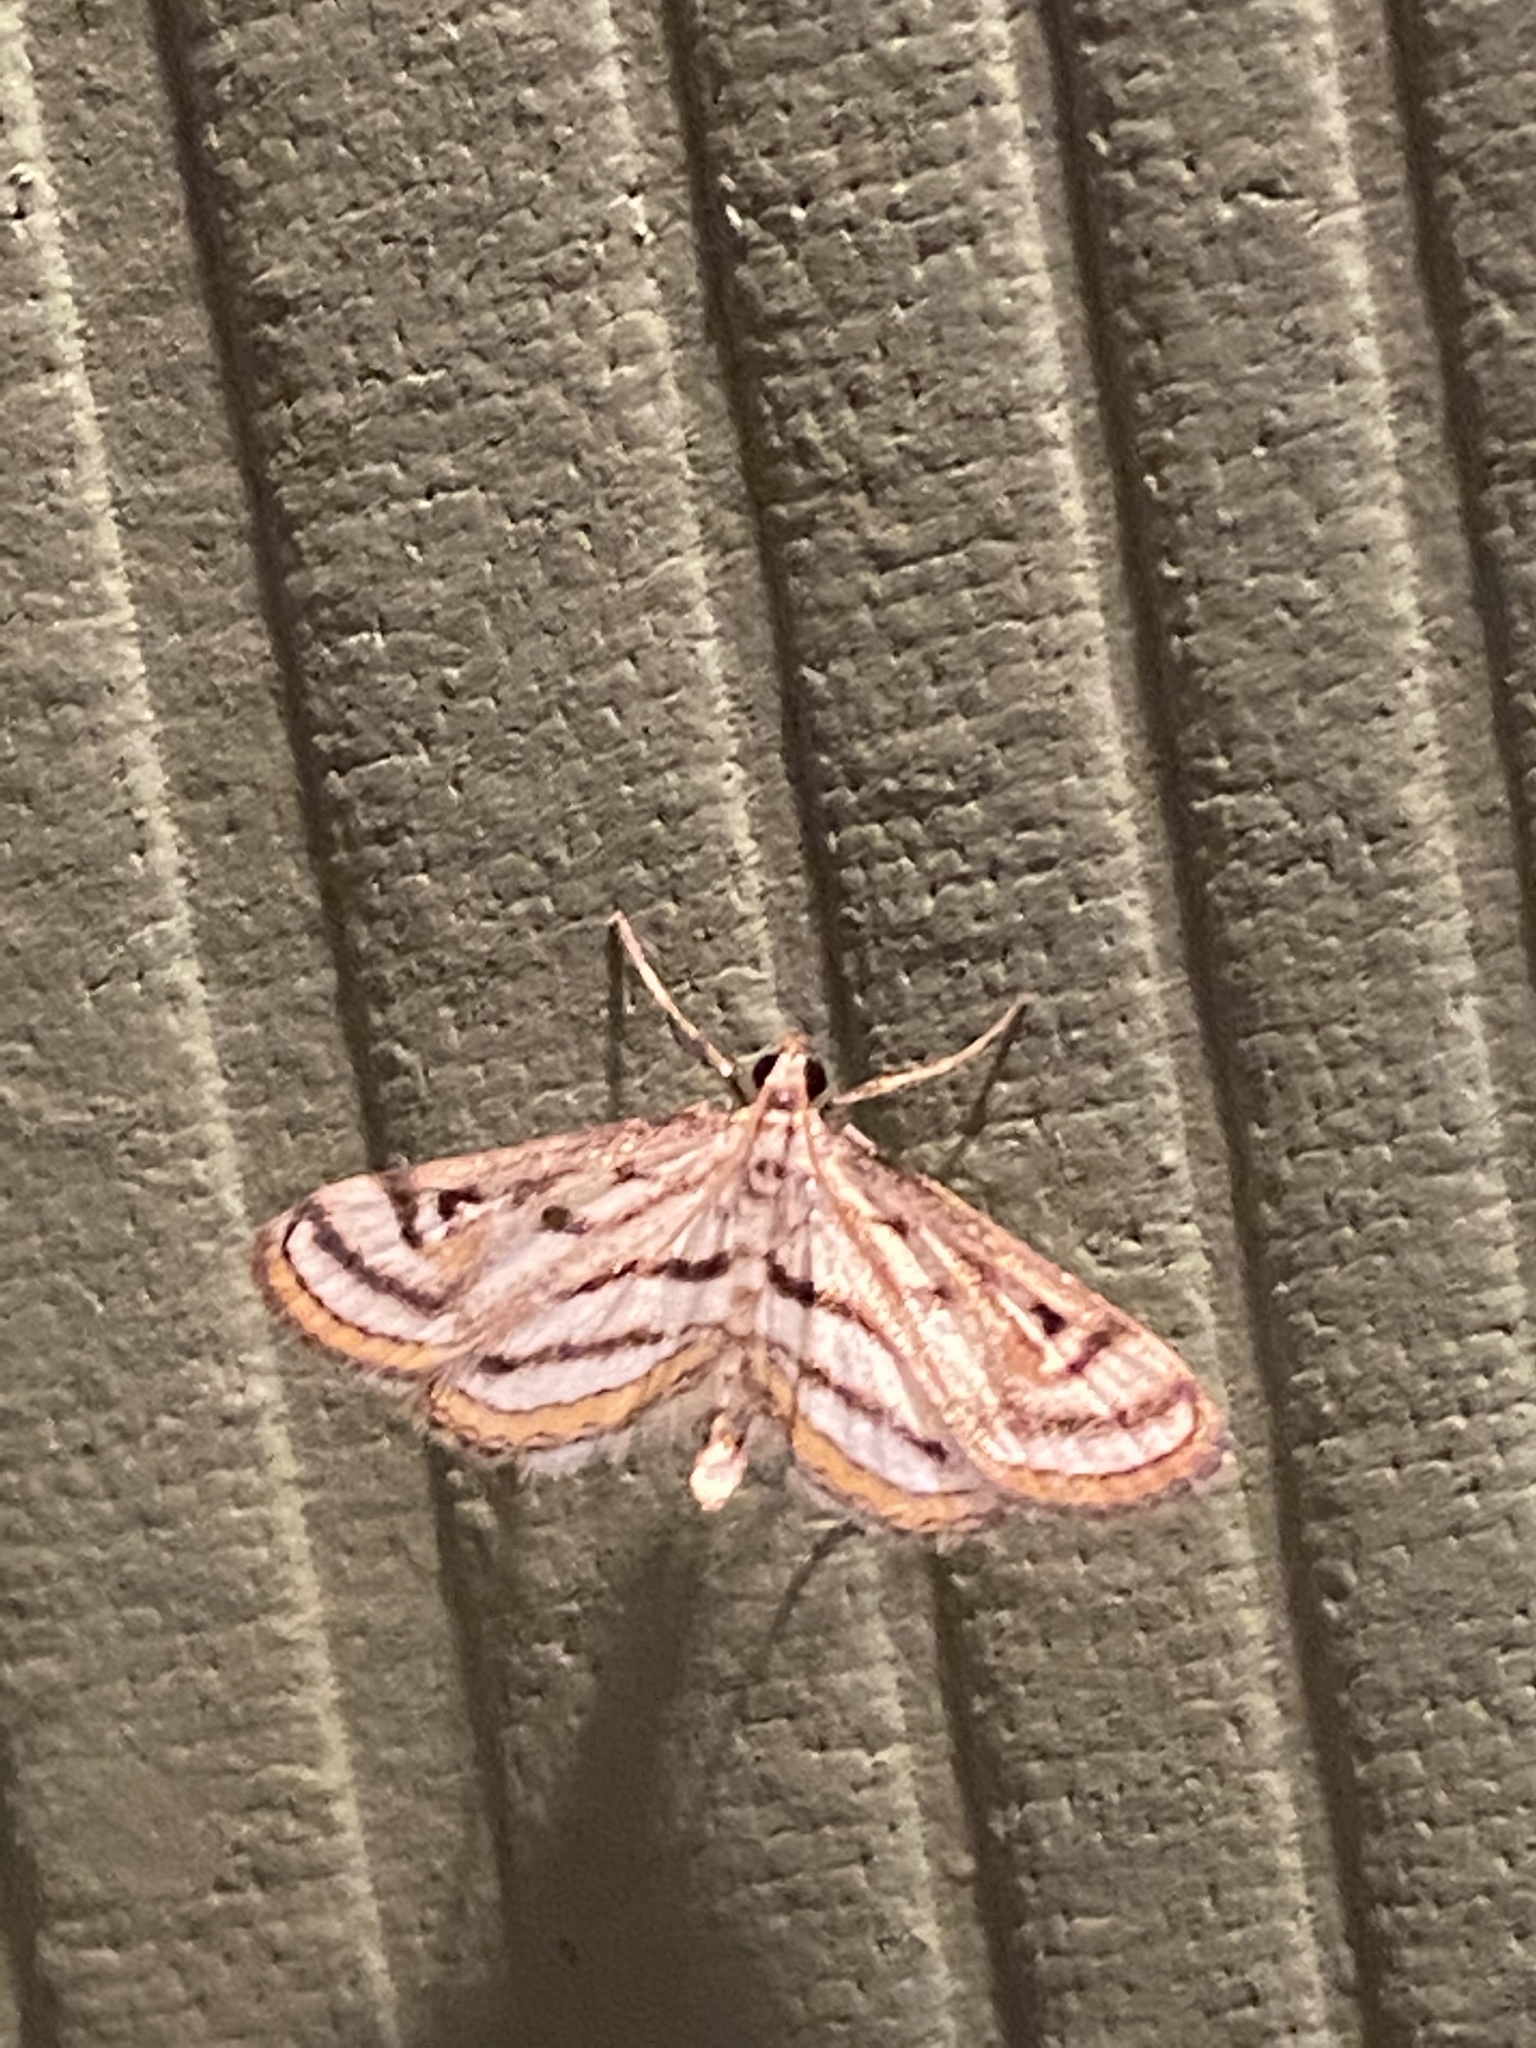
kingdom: Animalia
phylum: Arthropoda
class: Insecta
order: Lepidoptera
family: Crambidae
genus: Parapoynx
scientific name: Parapoynx badiusalis
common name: Chestnut-marked pondweed moth
